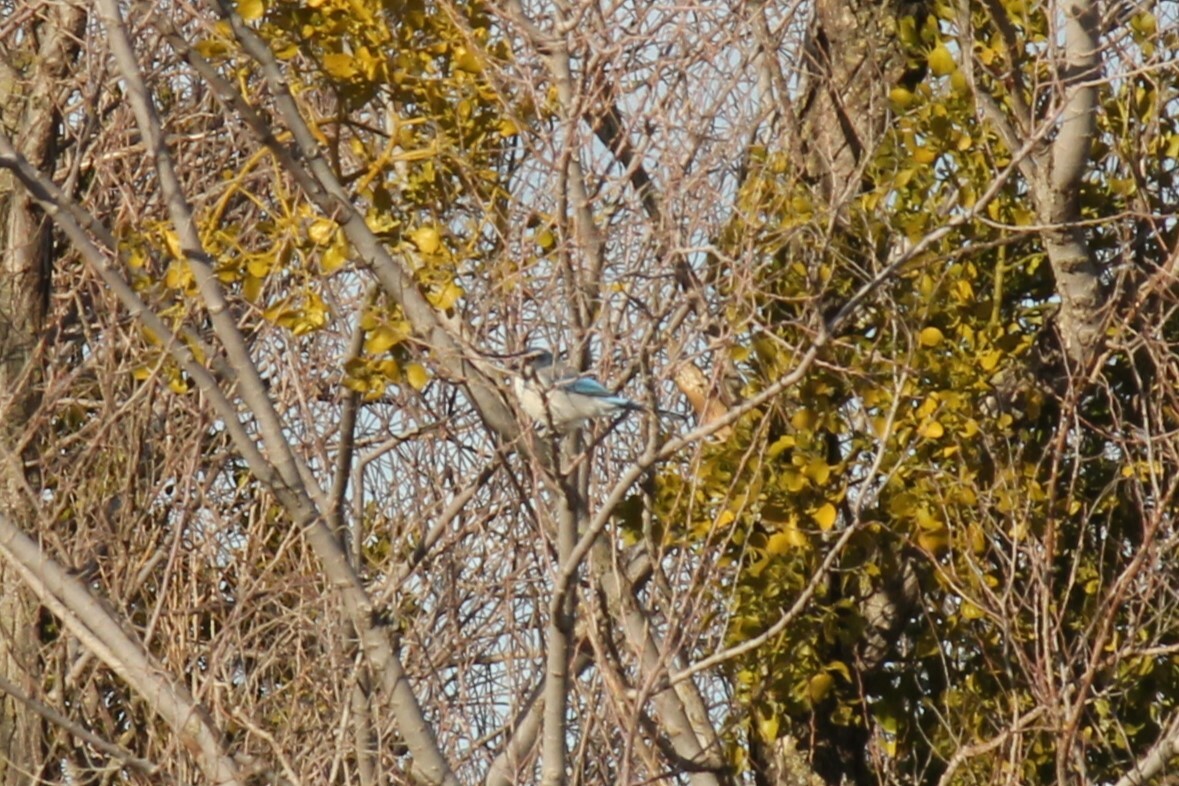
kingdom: Animalia
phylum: Chordata
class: Aves
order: Passeriformes
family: Corvidae
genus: Aphelocoma
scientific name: Aphelocoma californica
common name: California scrub-jay
